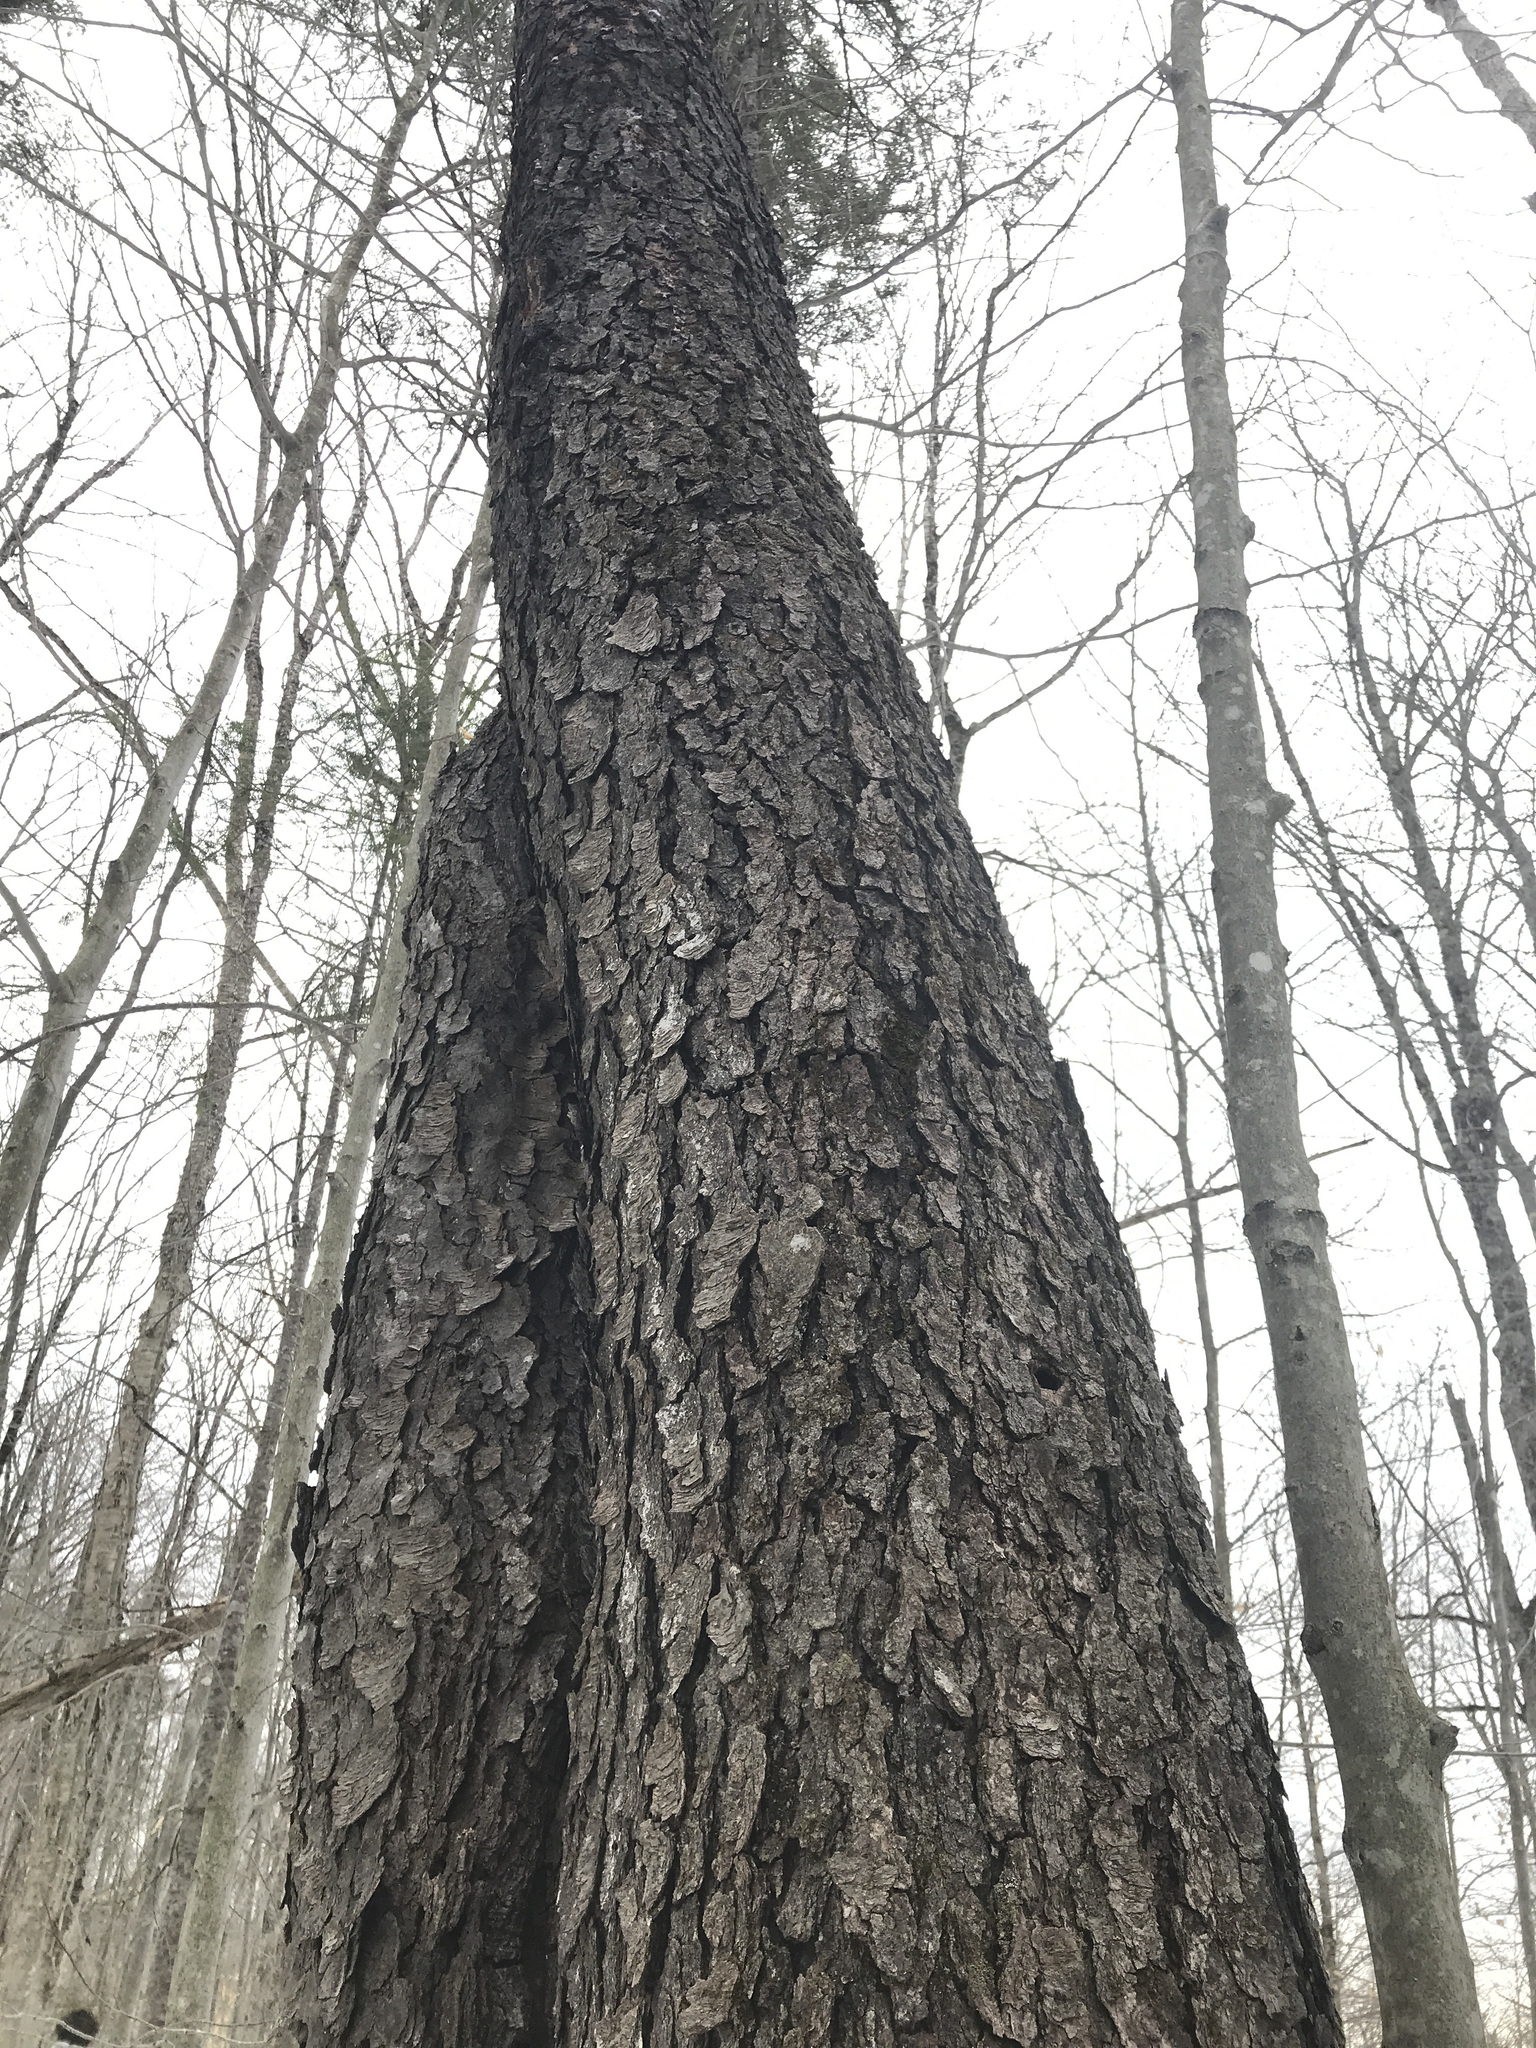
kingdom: Plantae
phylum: Tracheophyta
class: Magnoliopsida
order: Rosales
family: Rosaceae
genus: Prunus
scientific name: Prunus serotina
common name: Black cherry
